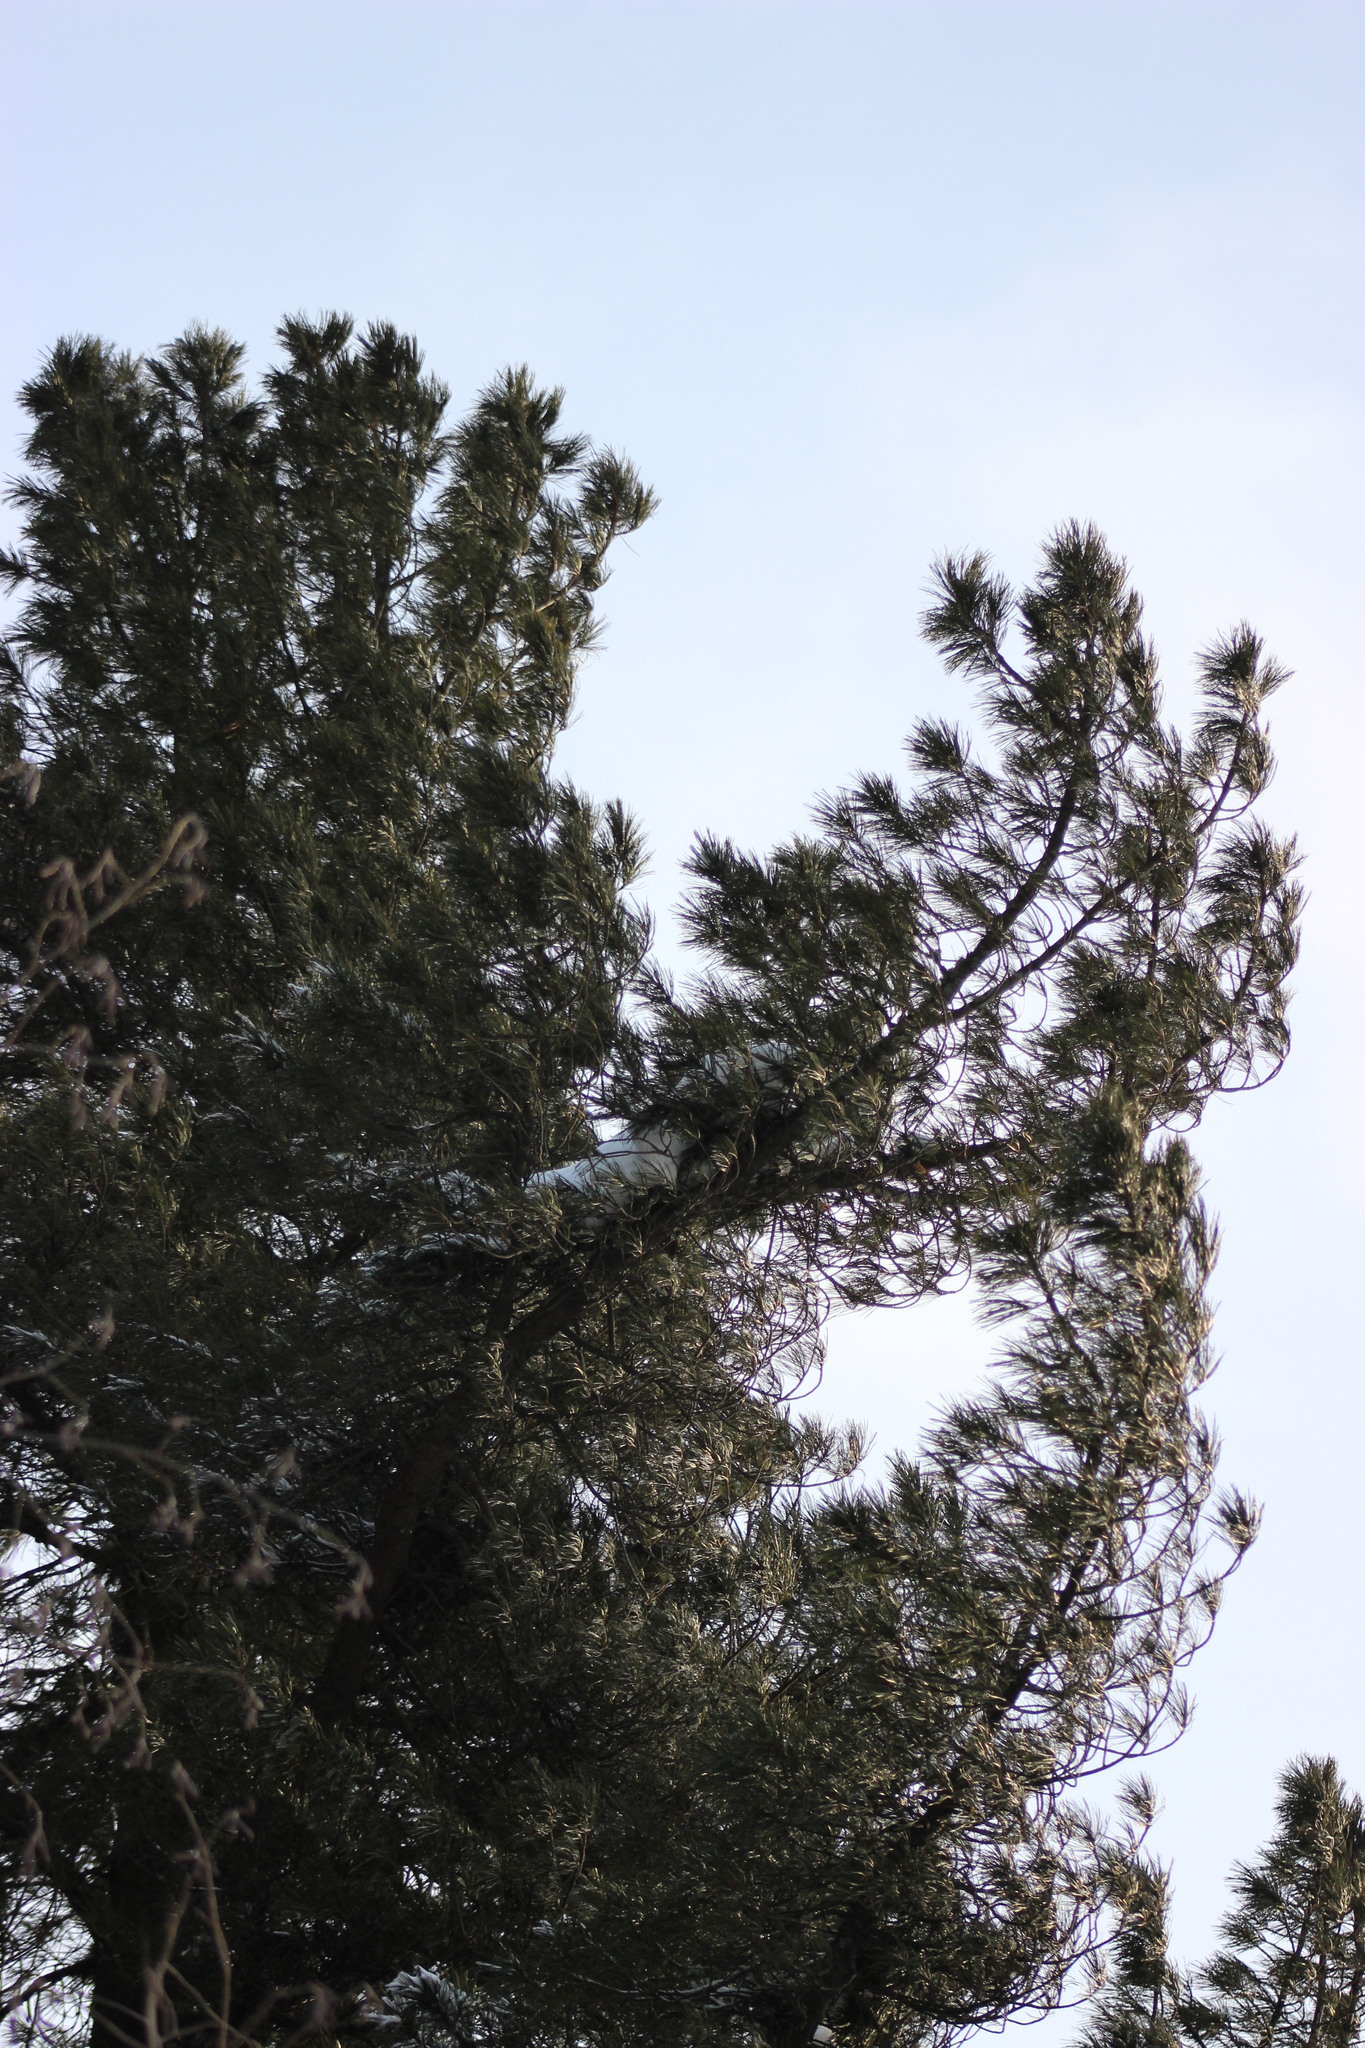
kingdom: Plantae
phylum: Tracheophyta
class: Pinopsida
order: Pinales
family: Pinaceae
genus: Pinus
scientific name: Pinus sibirica
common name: Siberian pine
